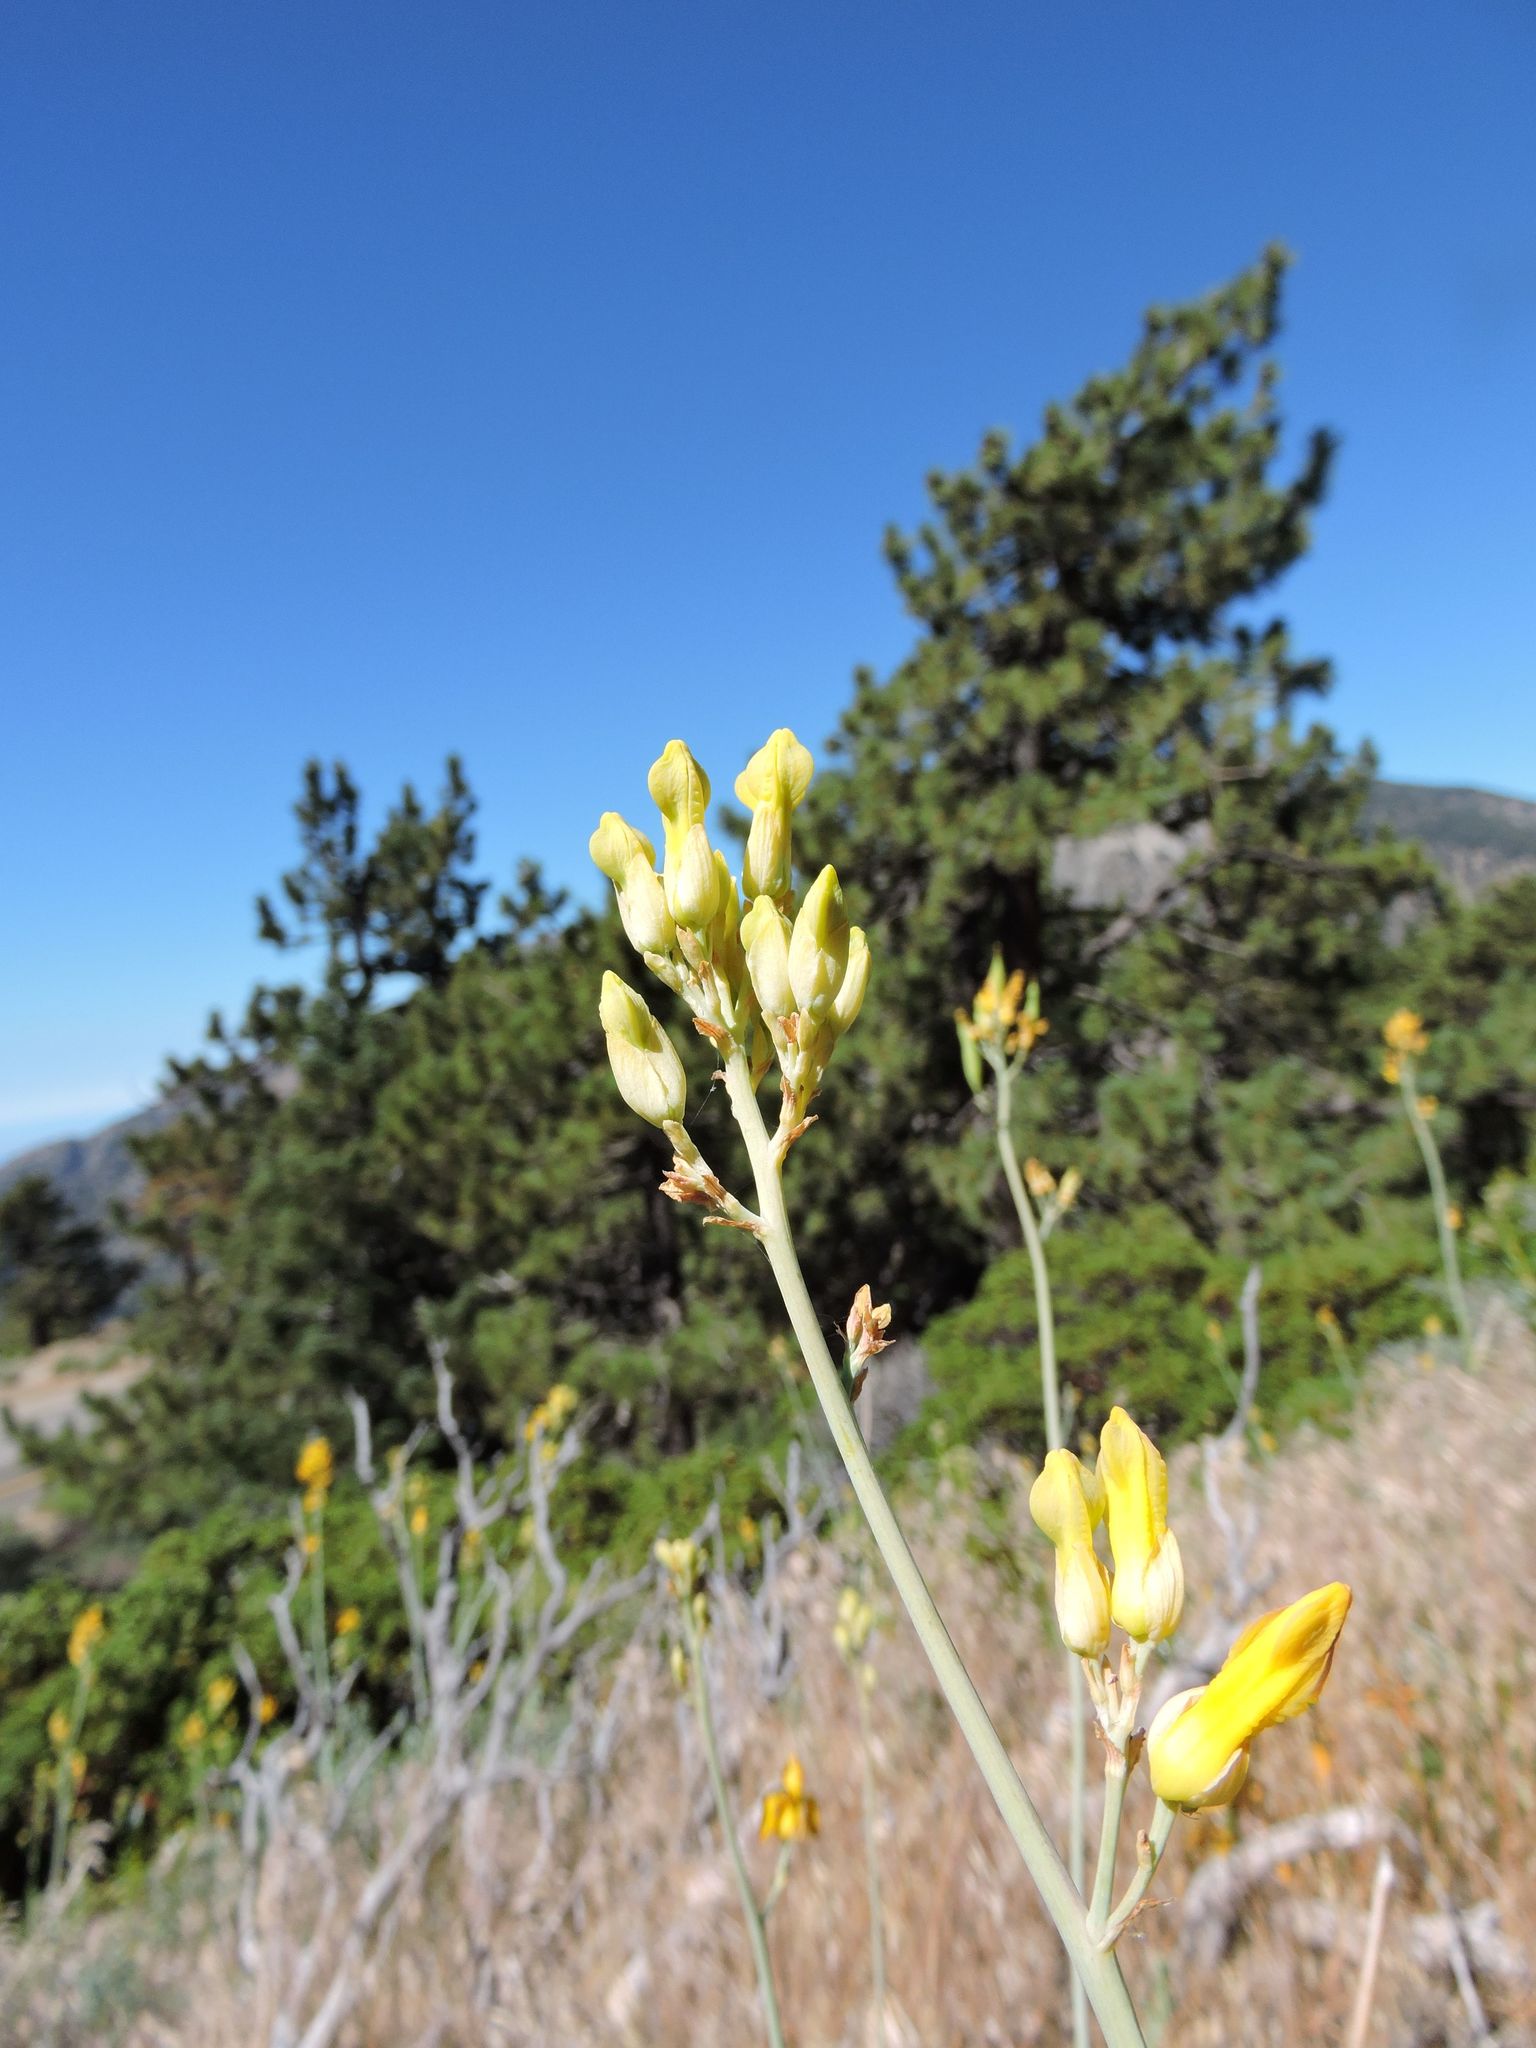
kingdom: Plantae
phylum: Tracheophyta
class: Magnoliopsida
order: Ranunculales
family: Papaveraceae
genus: Ehrendorferia
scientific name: Ehrendorferia chrysantha
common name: Golden eardrops
